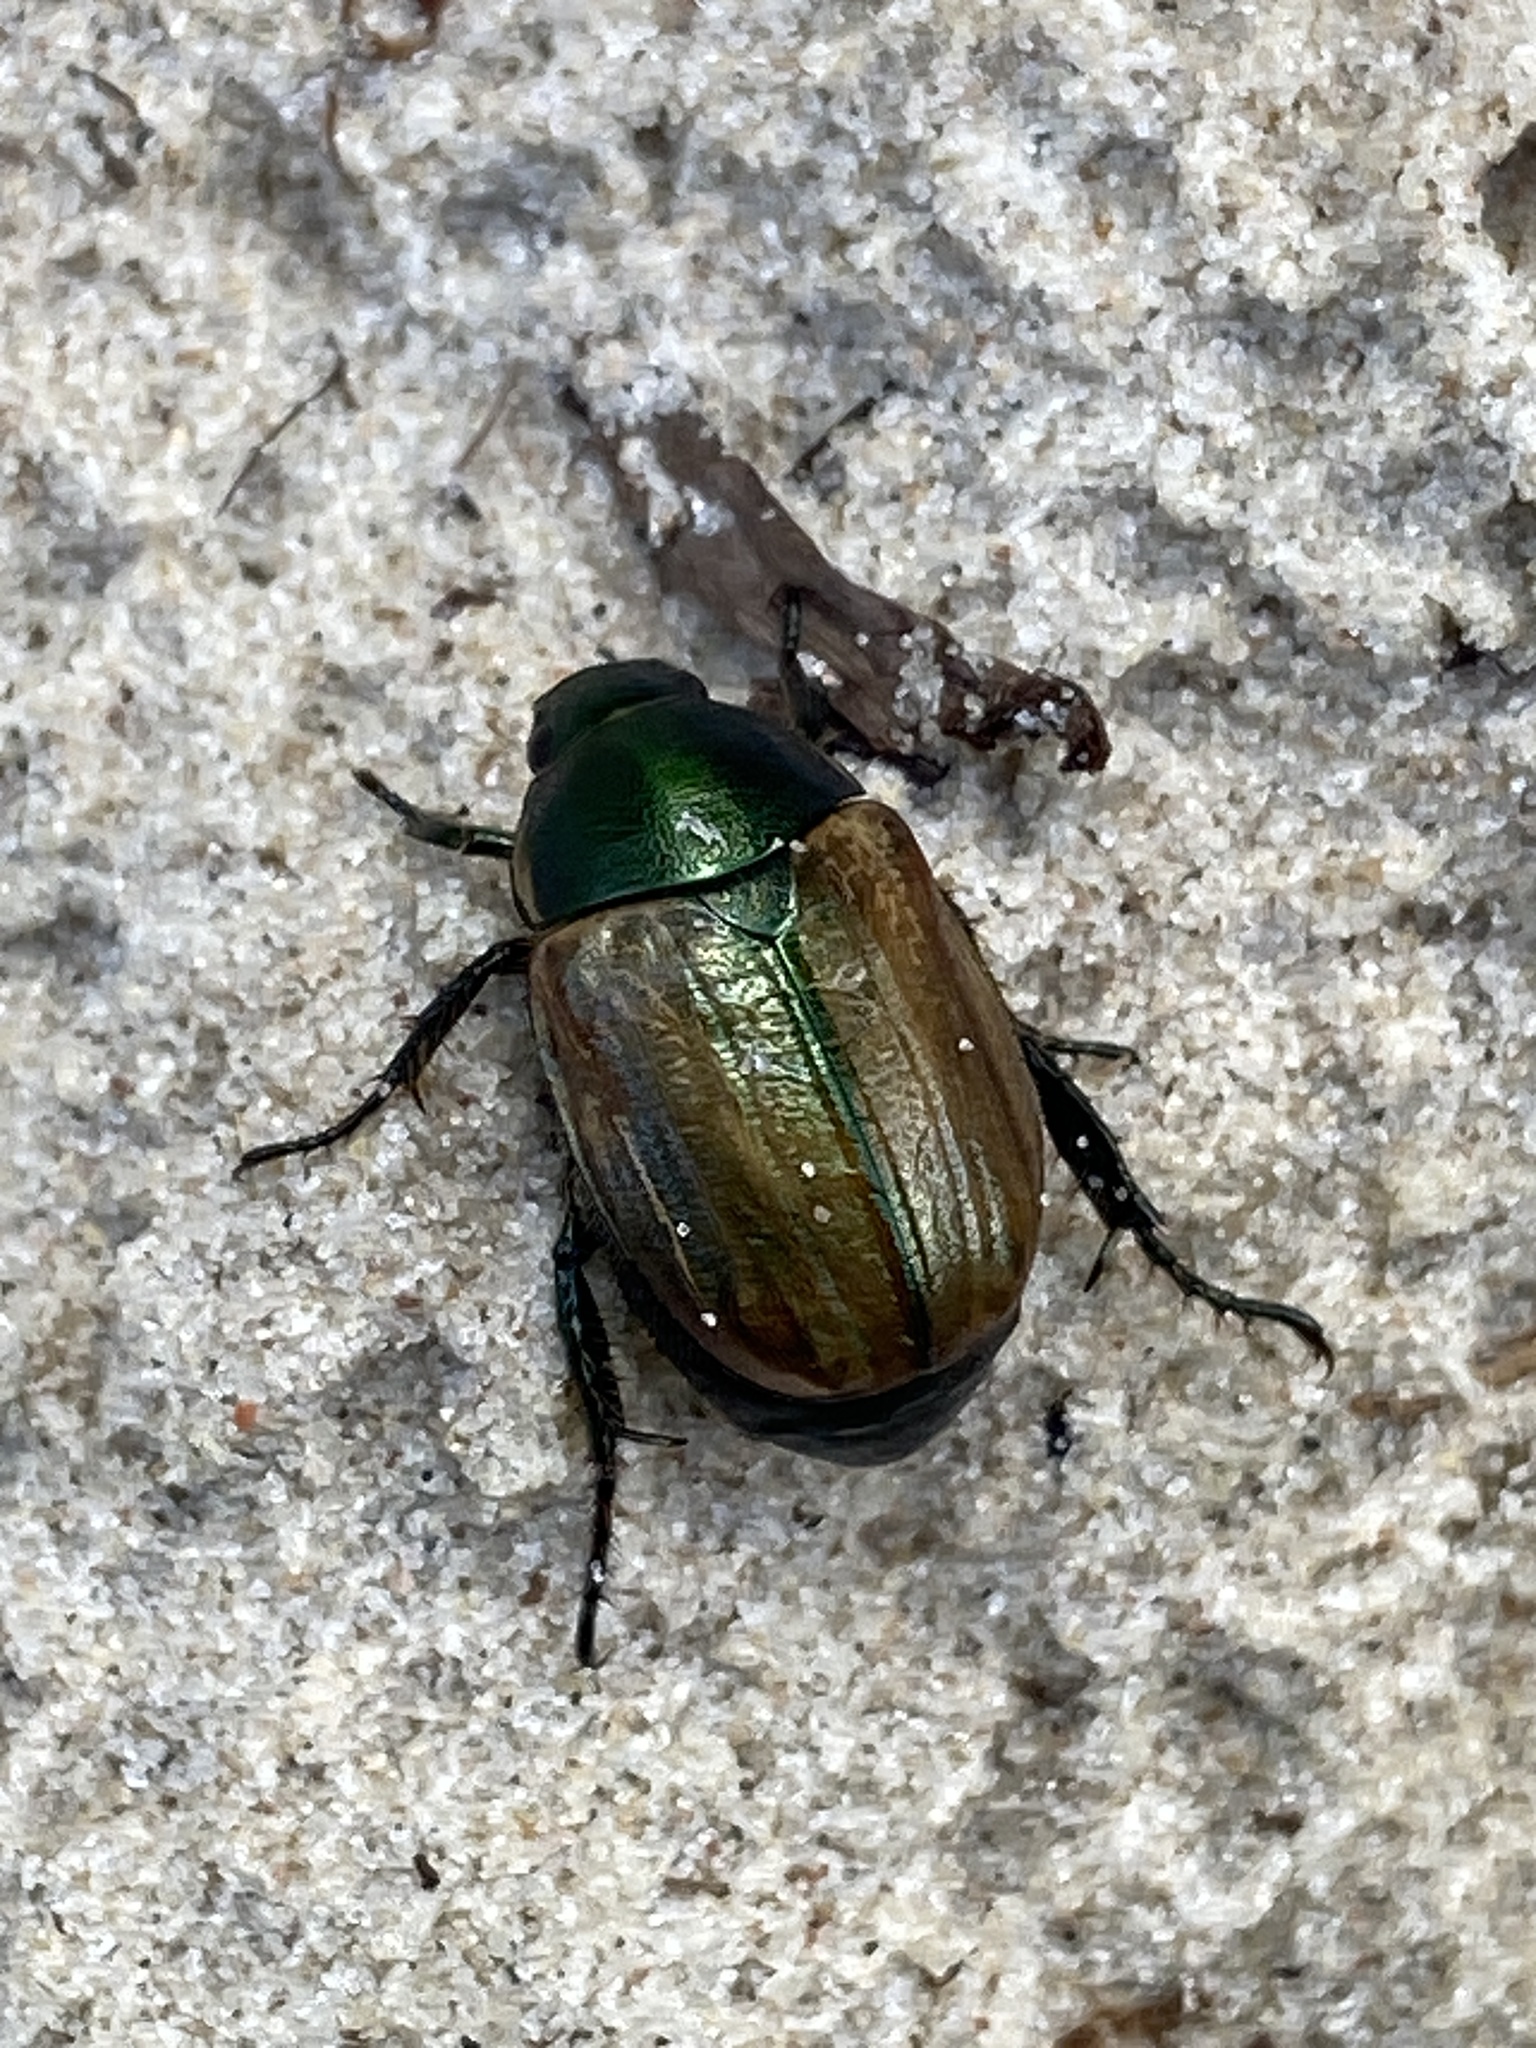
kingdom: Animalia
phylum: Arthropoda
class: Insecta
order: Coleoptera
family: Scarabaeidae
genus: Anomala
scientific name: Anomala dubia
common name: Dune chafer
